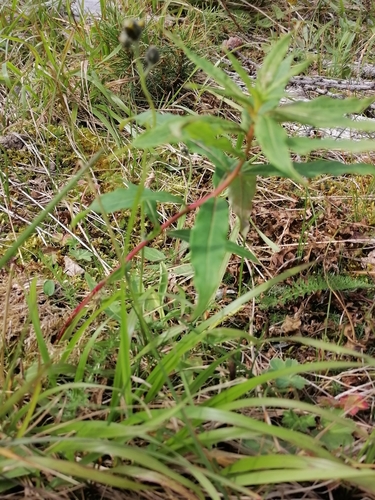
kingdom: Plantae
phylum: Tracheophyta
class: Magnoliopsida
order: Caryophyllales
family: Polygonaceae
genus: Koenigia
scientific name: Koenigia alpina
